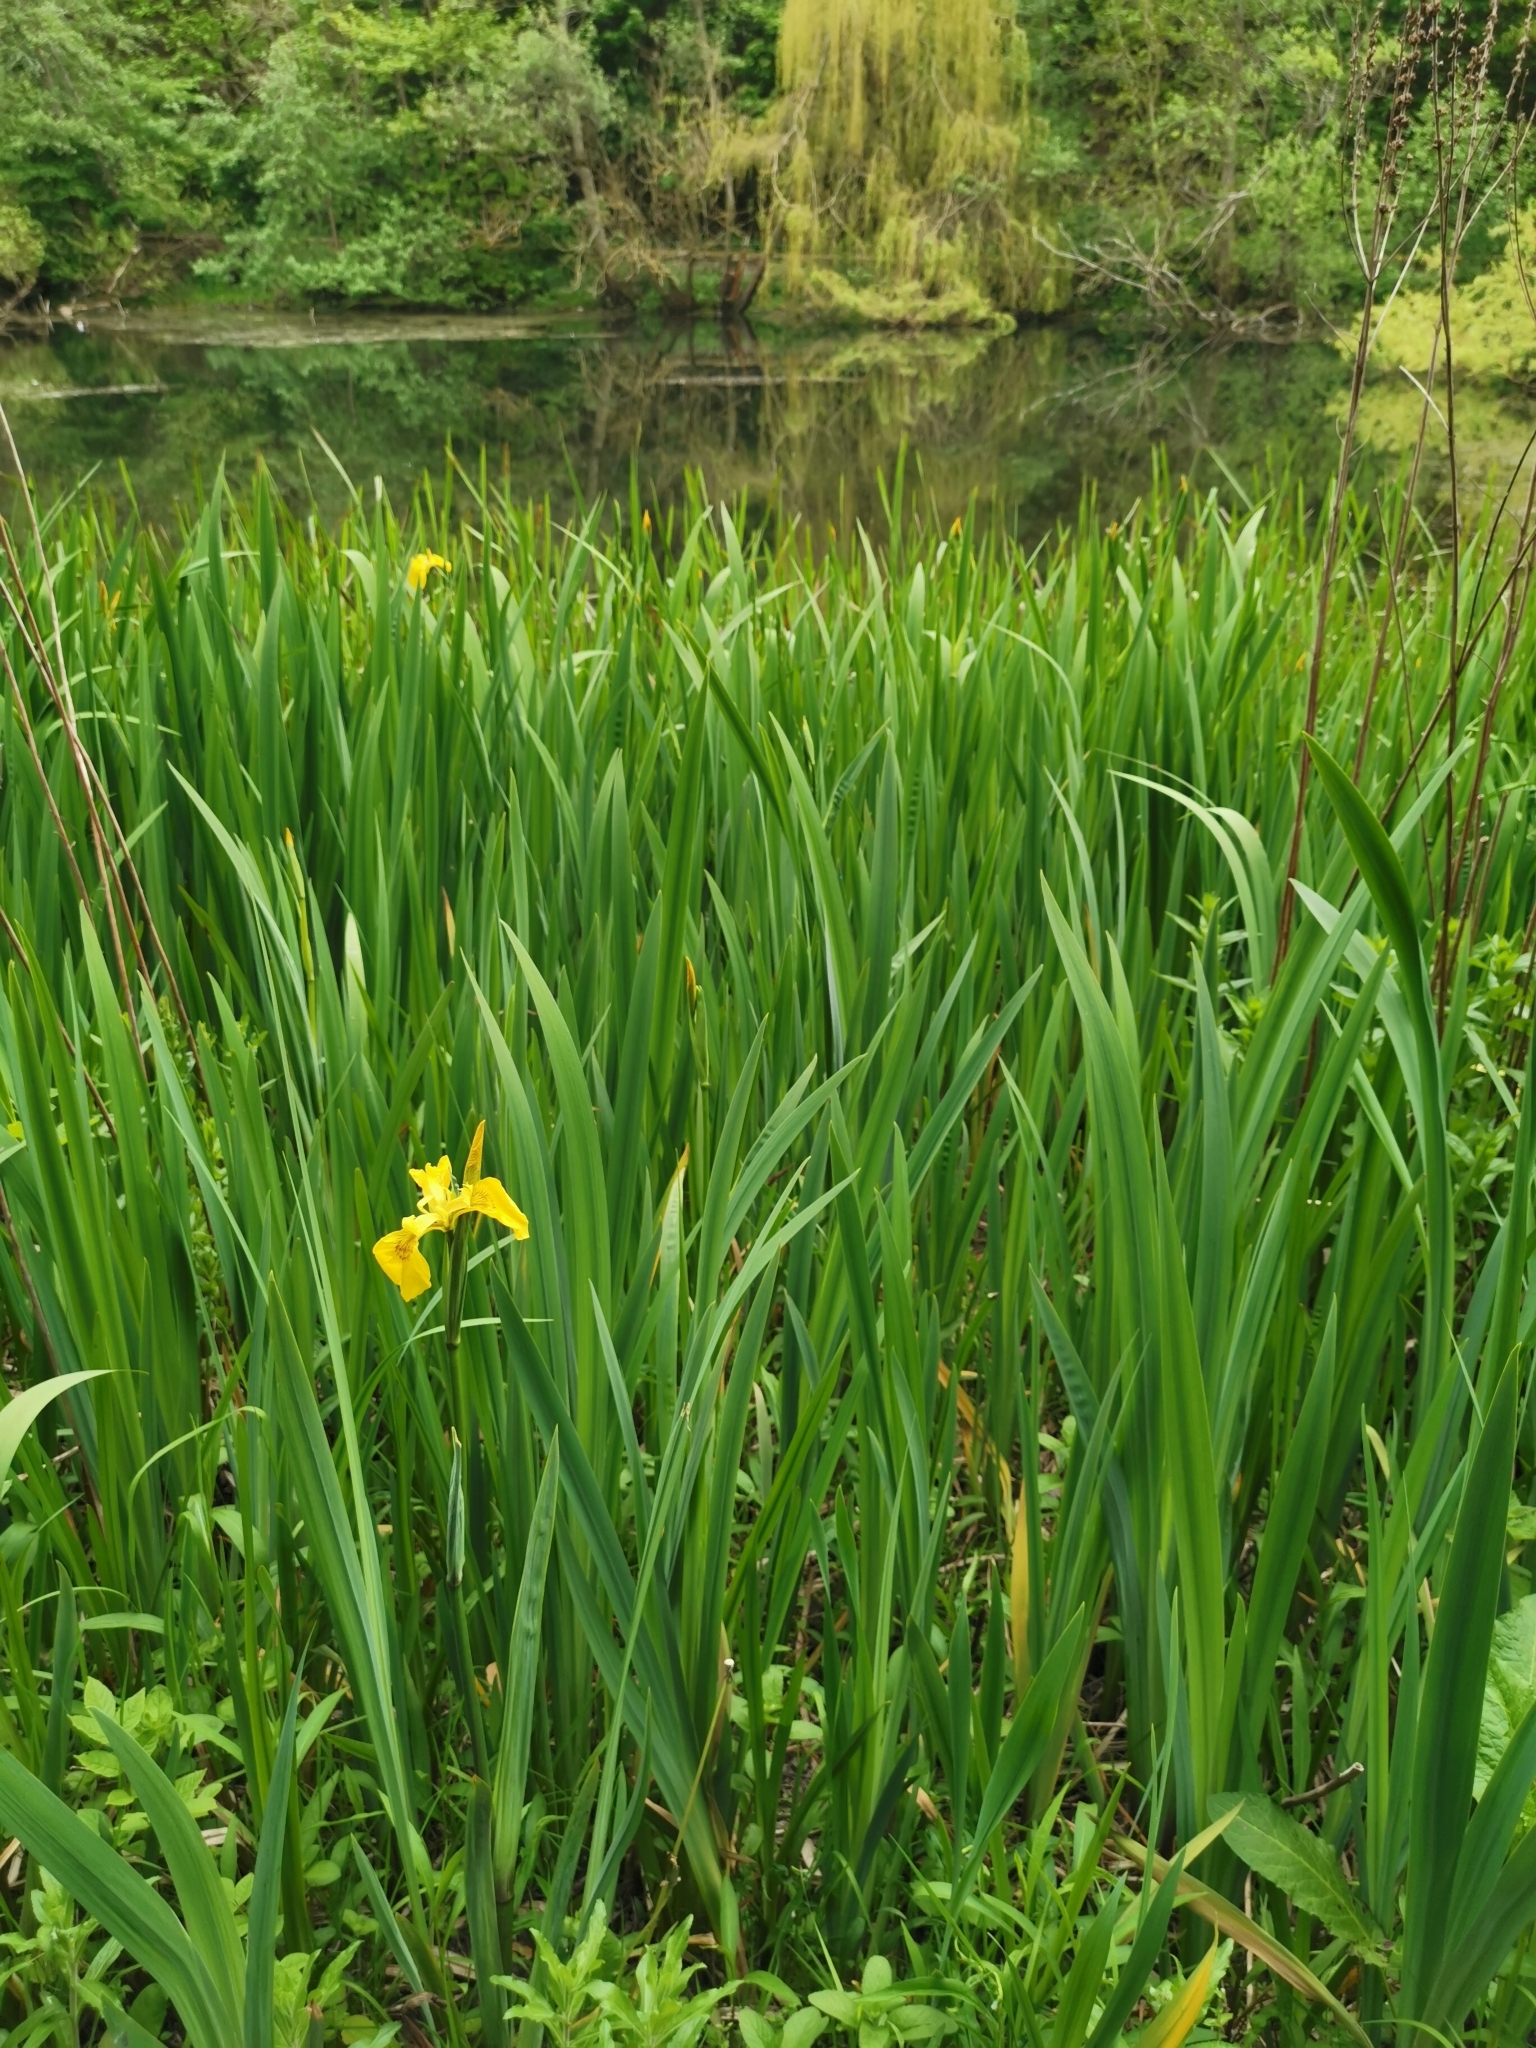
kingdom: Plantae
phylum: Tracheophyta
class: Liliopsida
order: Asparagales
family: Iridaceae
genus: Iris
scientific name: Iris pseudacorus
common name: Yellow flag
